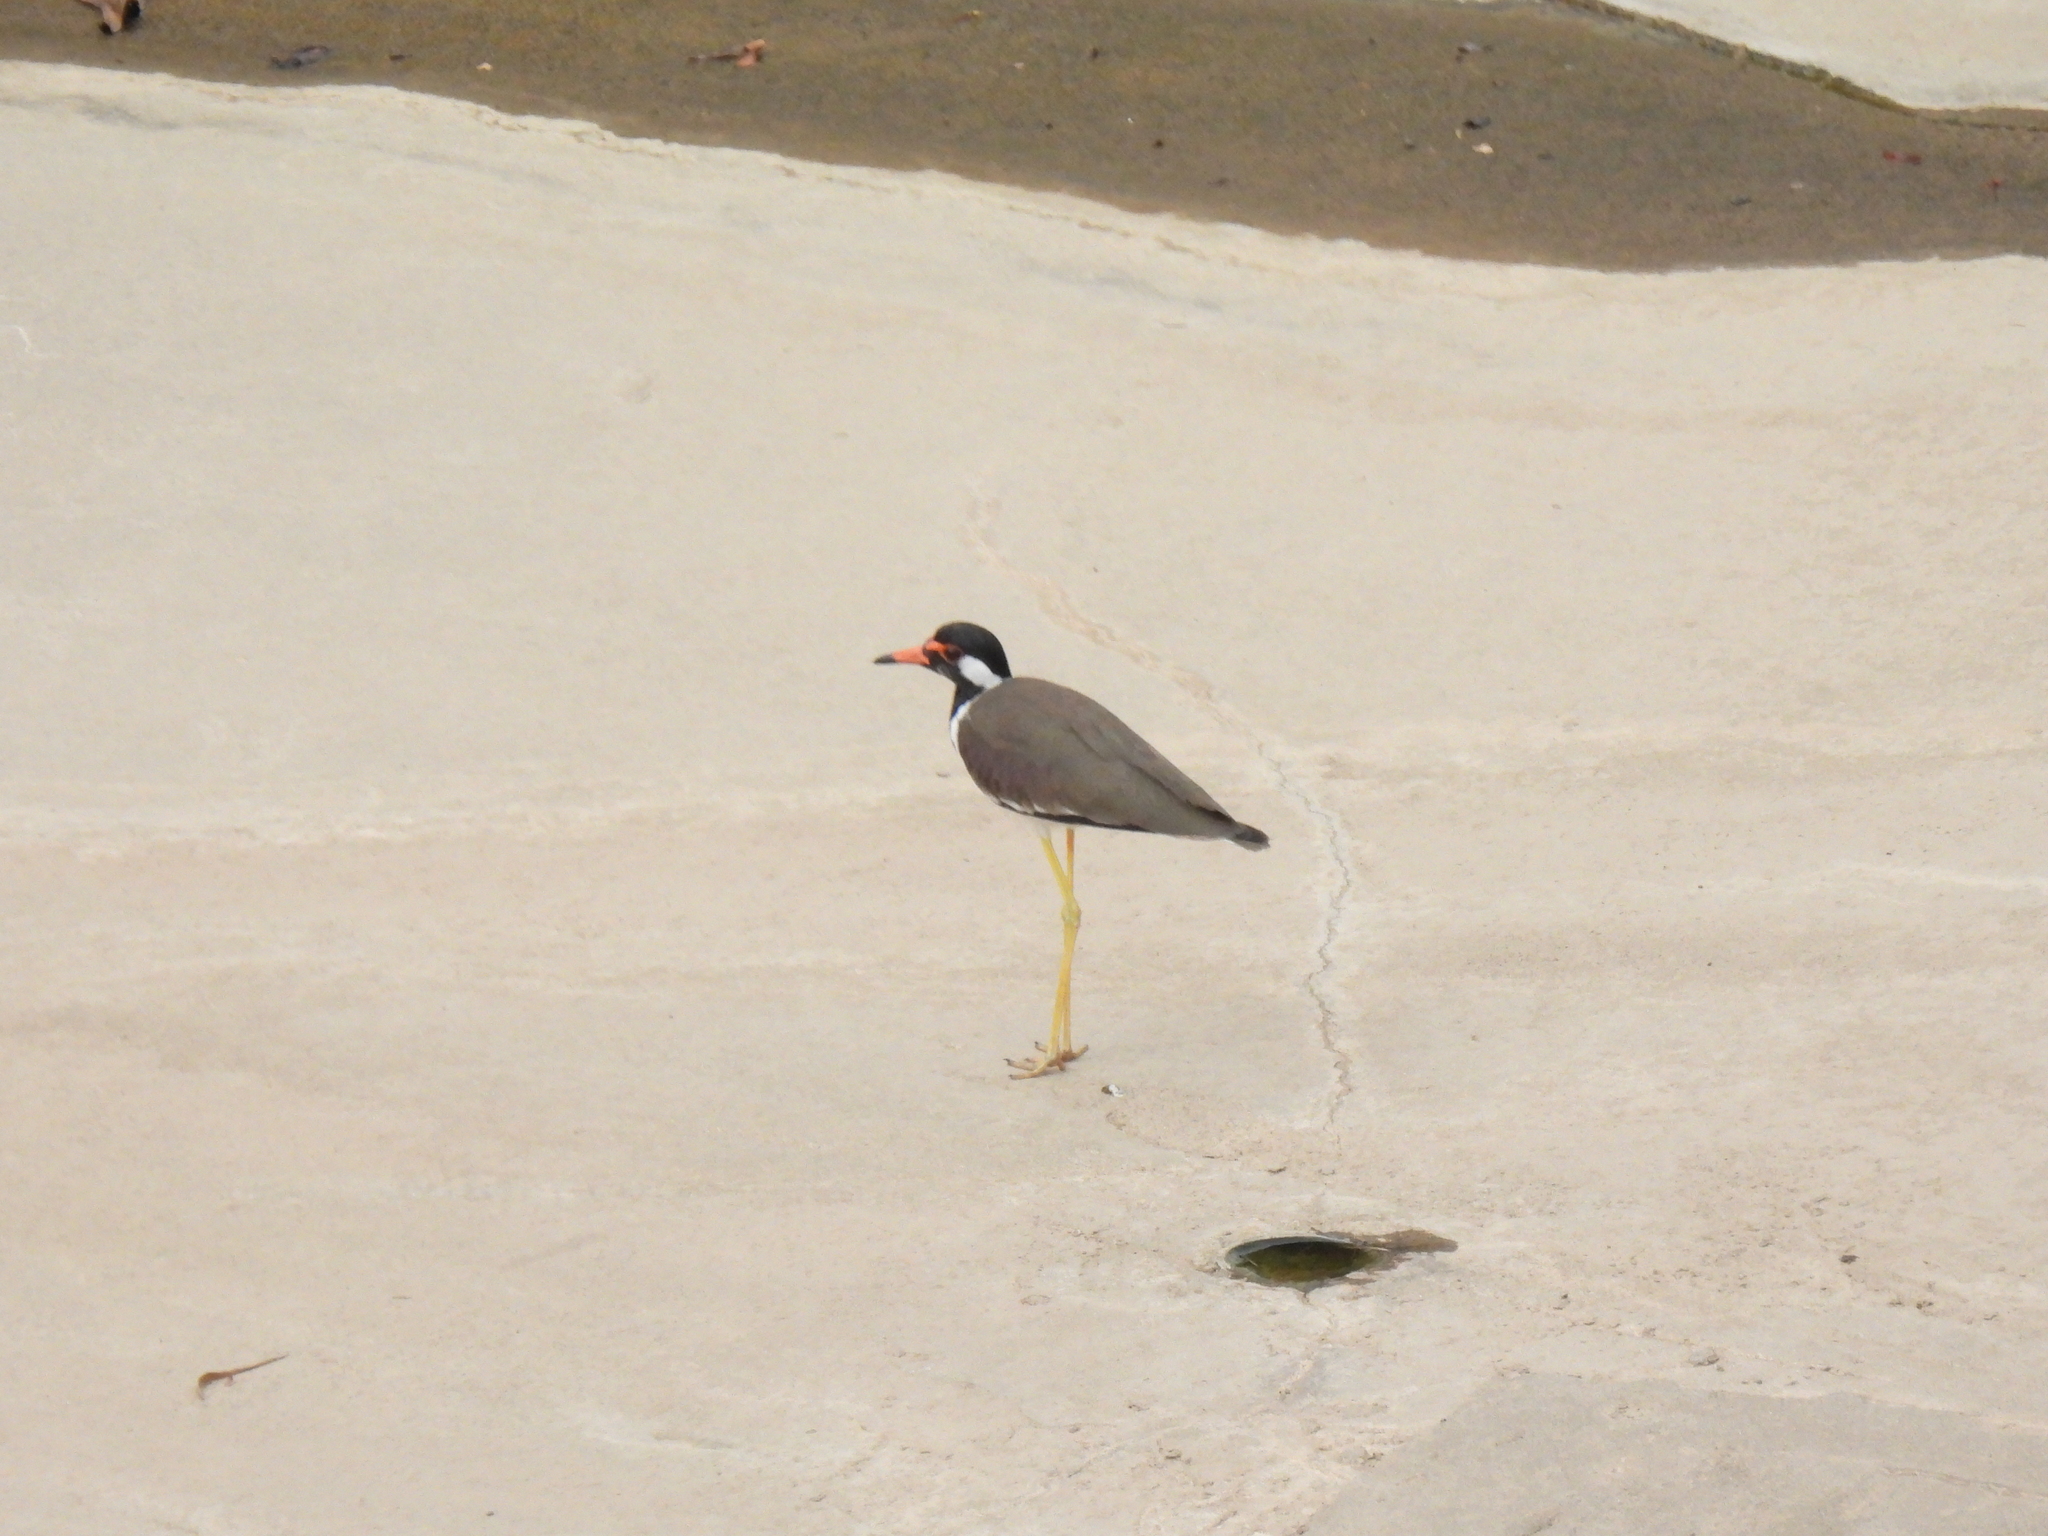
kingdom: Animalia
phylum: Chordata
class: Aves
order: Charadriiformes
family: Charadriidae
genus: Vanellus
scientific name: Vanellus indicus
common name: Red-wattled lapwing
